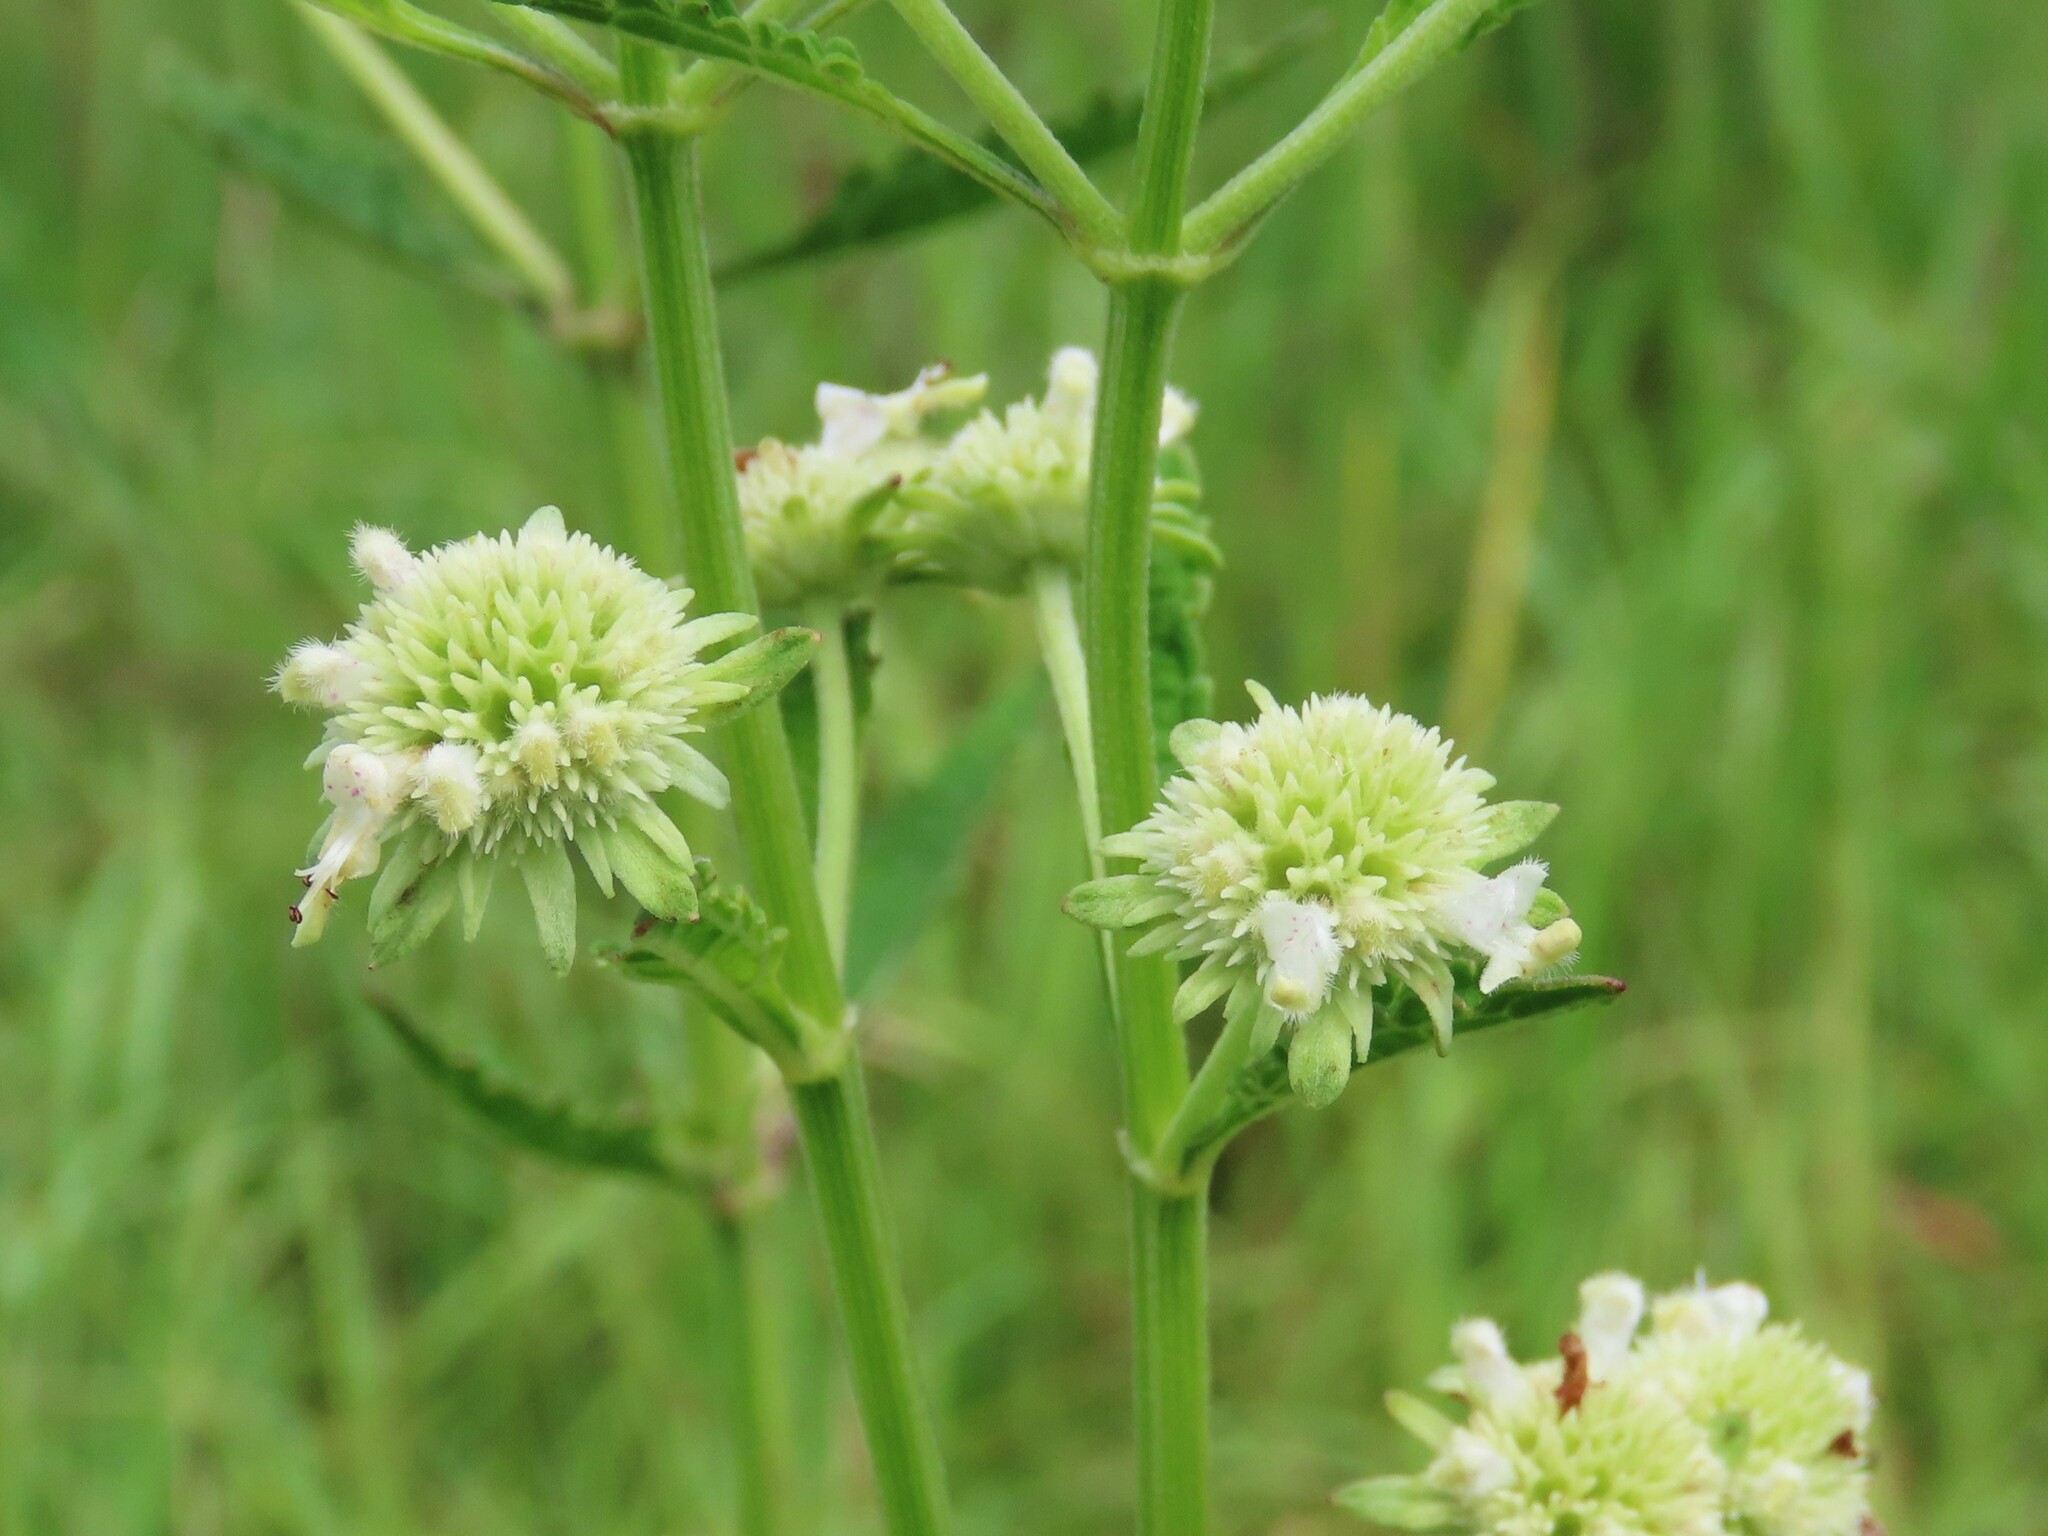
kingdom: Plantae
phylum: Tracheophyta
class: Magnoliopsida
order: Lamiales
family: Lamiaceae
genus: Hyptis
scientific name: Hyptis alata
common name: Cluster bush-mint
